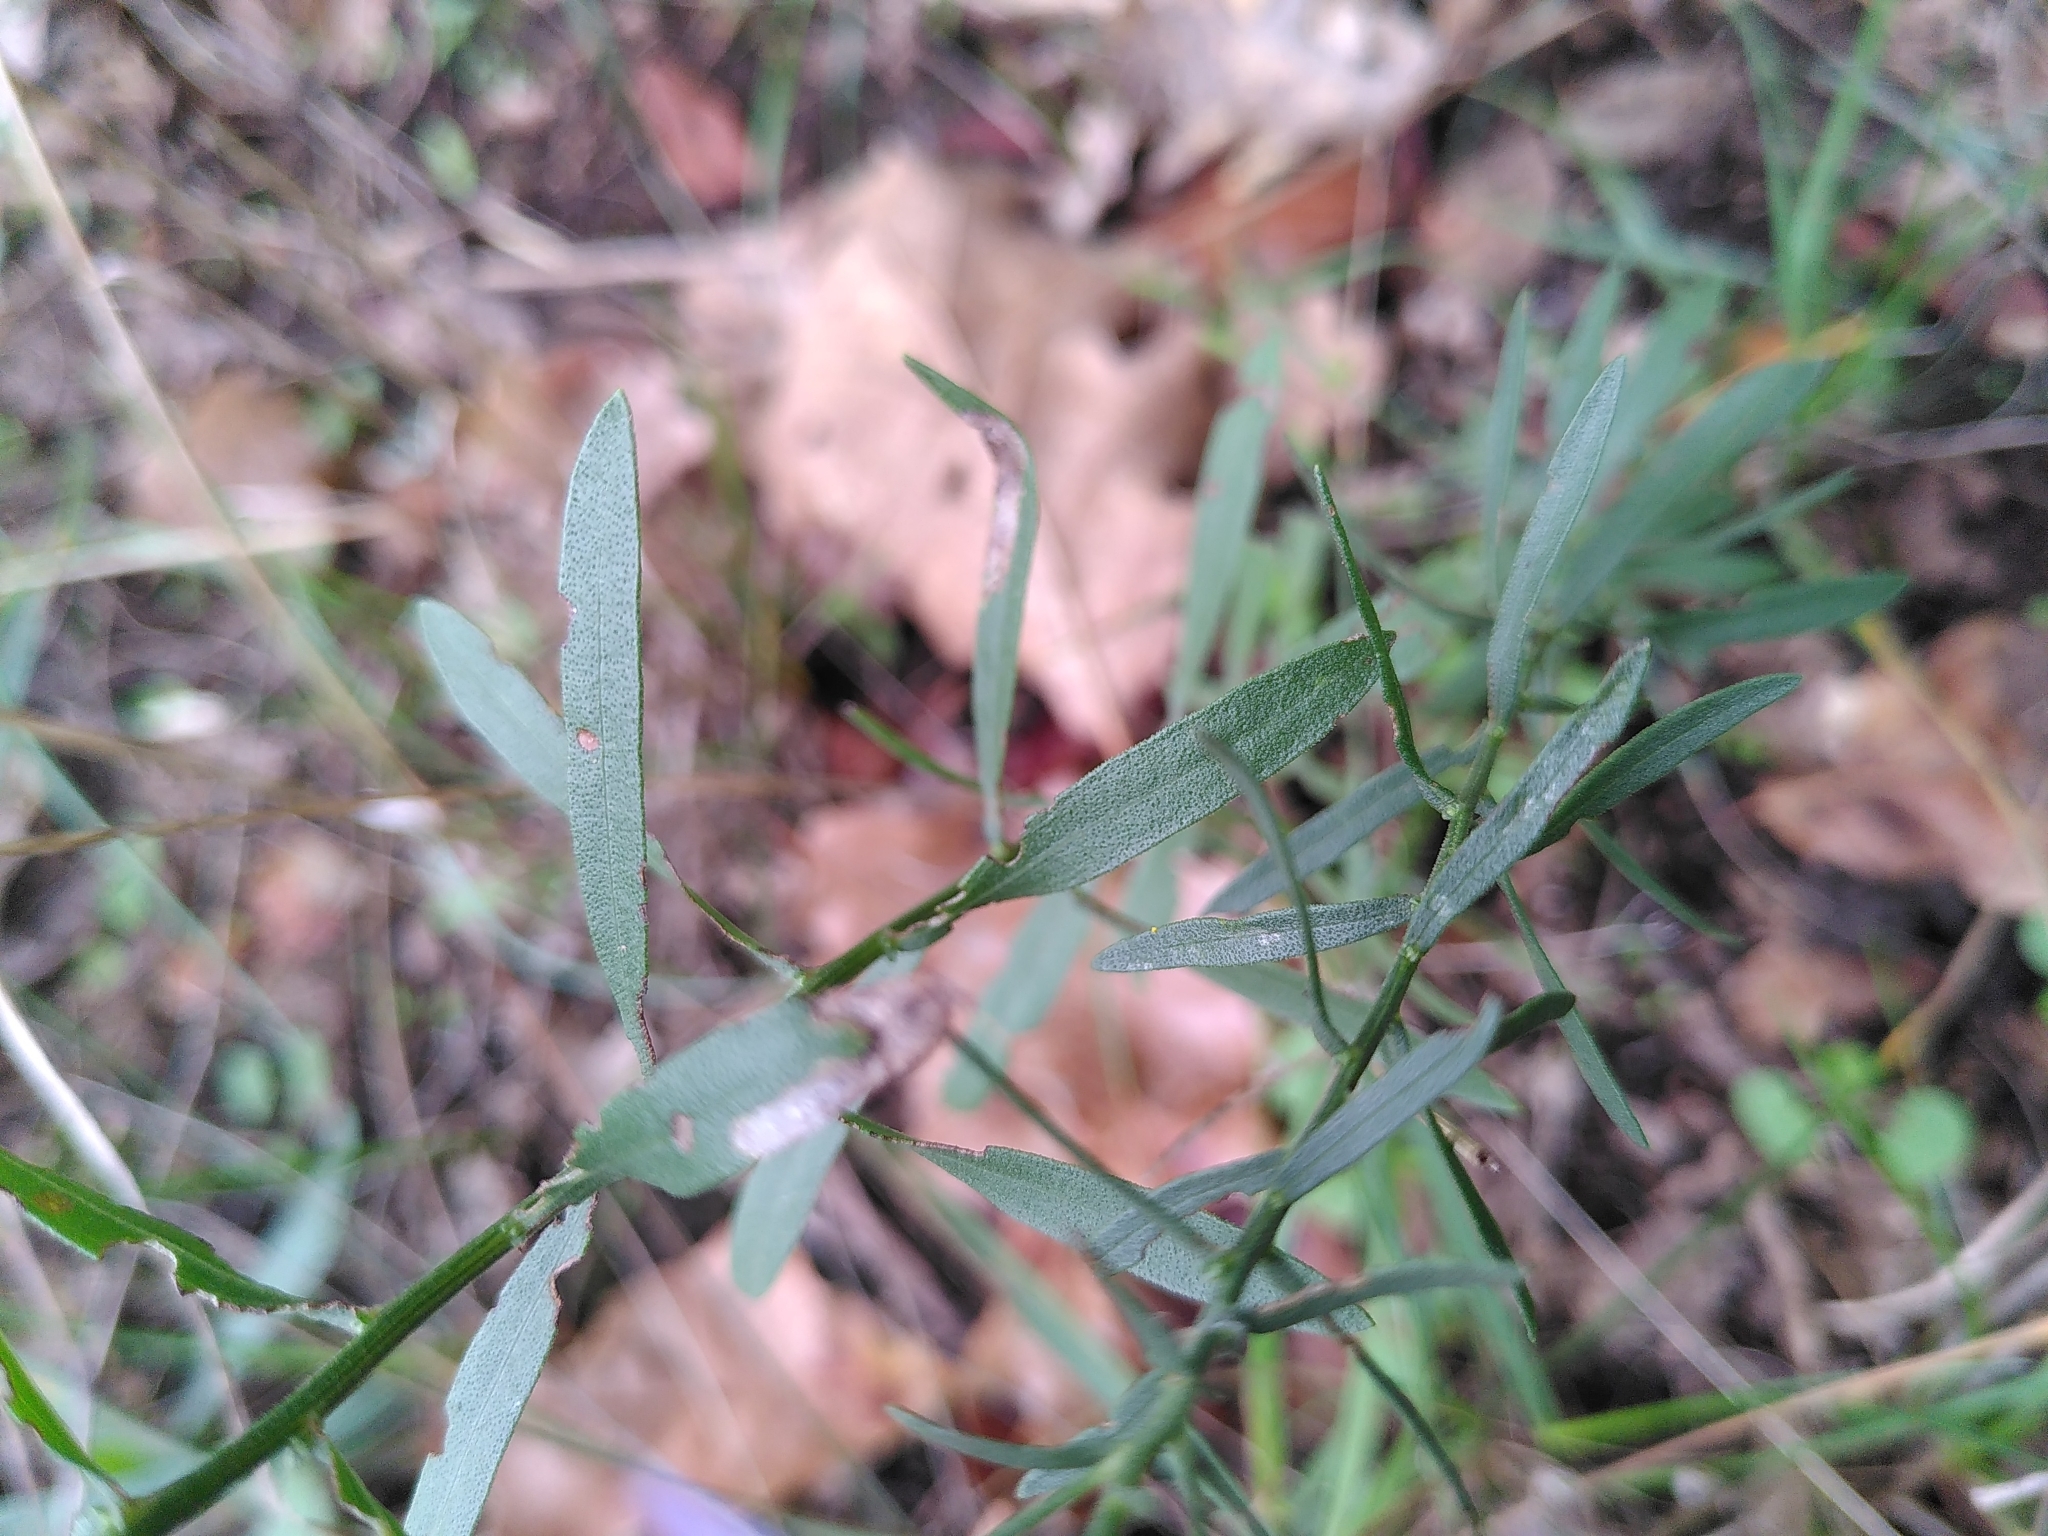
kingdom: Plantae
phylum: Tracheophyta
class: Magnoliopsida
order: Asterales
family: Asteraceae
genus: Galatella
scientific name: Galatella sedifolia
